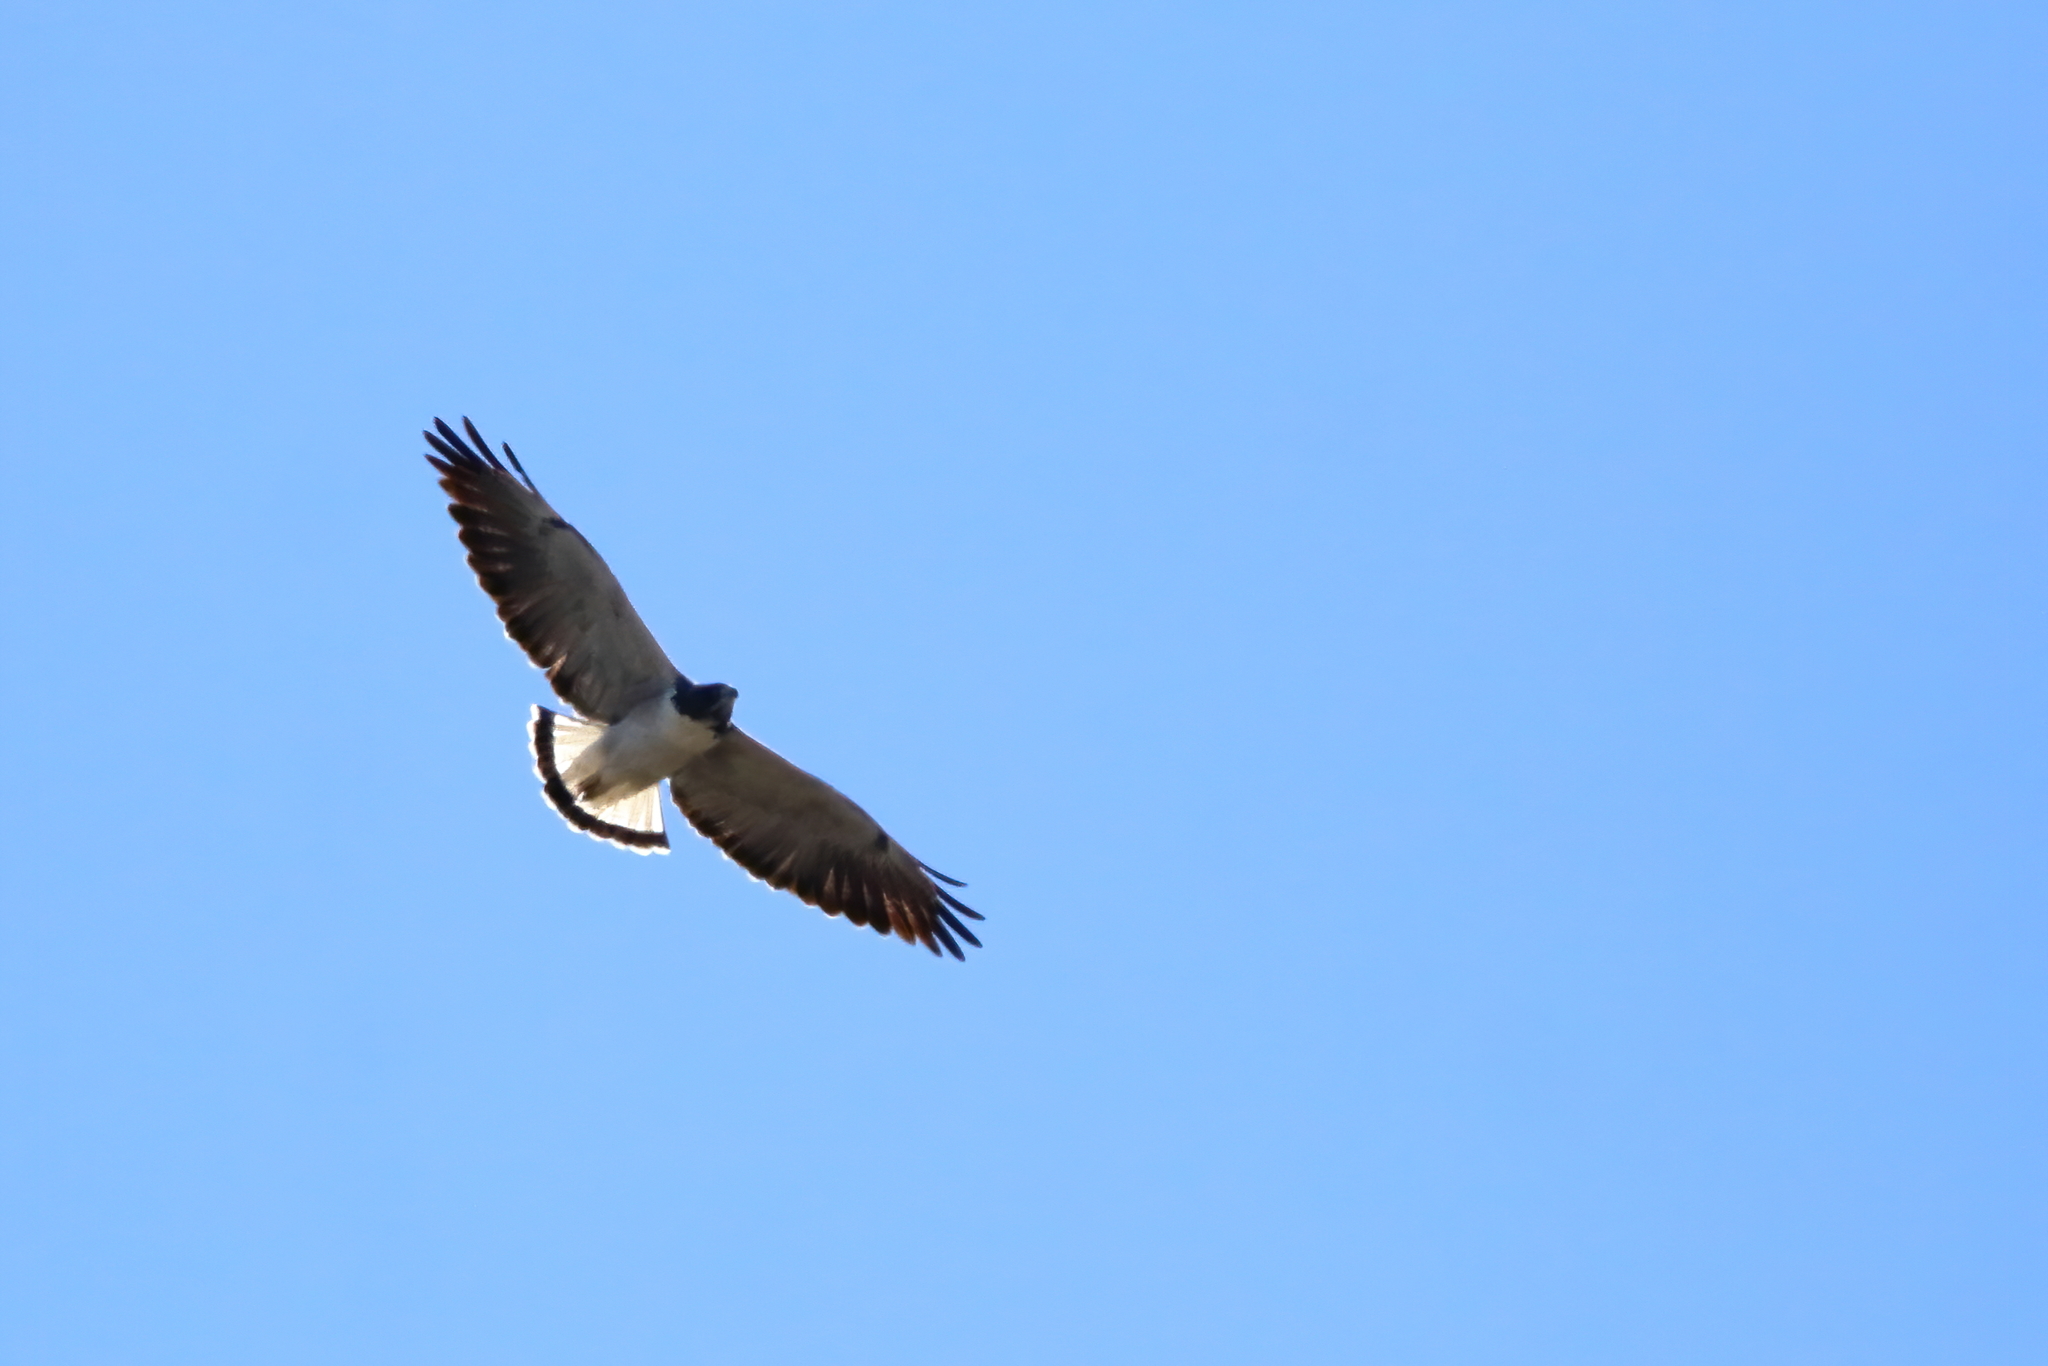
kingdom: Animalia
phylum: Chordata
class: Aves
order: Accipitriformes
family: Accipitridae
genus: Buteo
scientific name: Buteo albicaudatus
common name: White-tailed hawk
